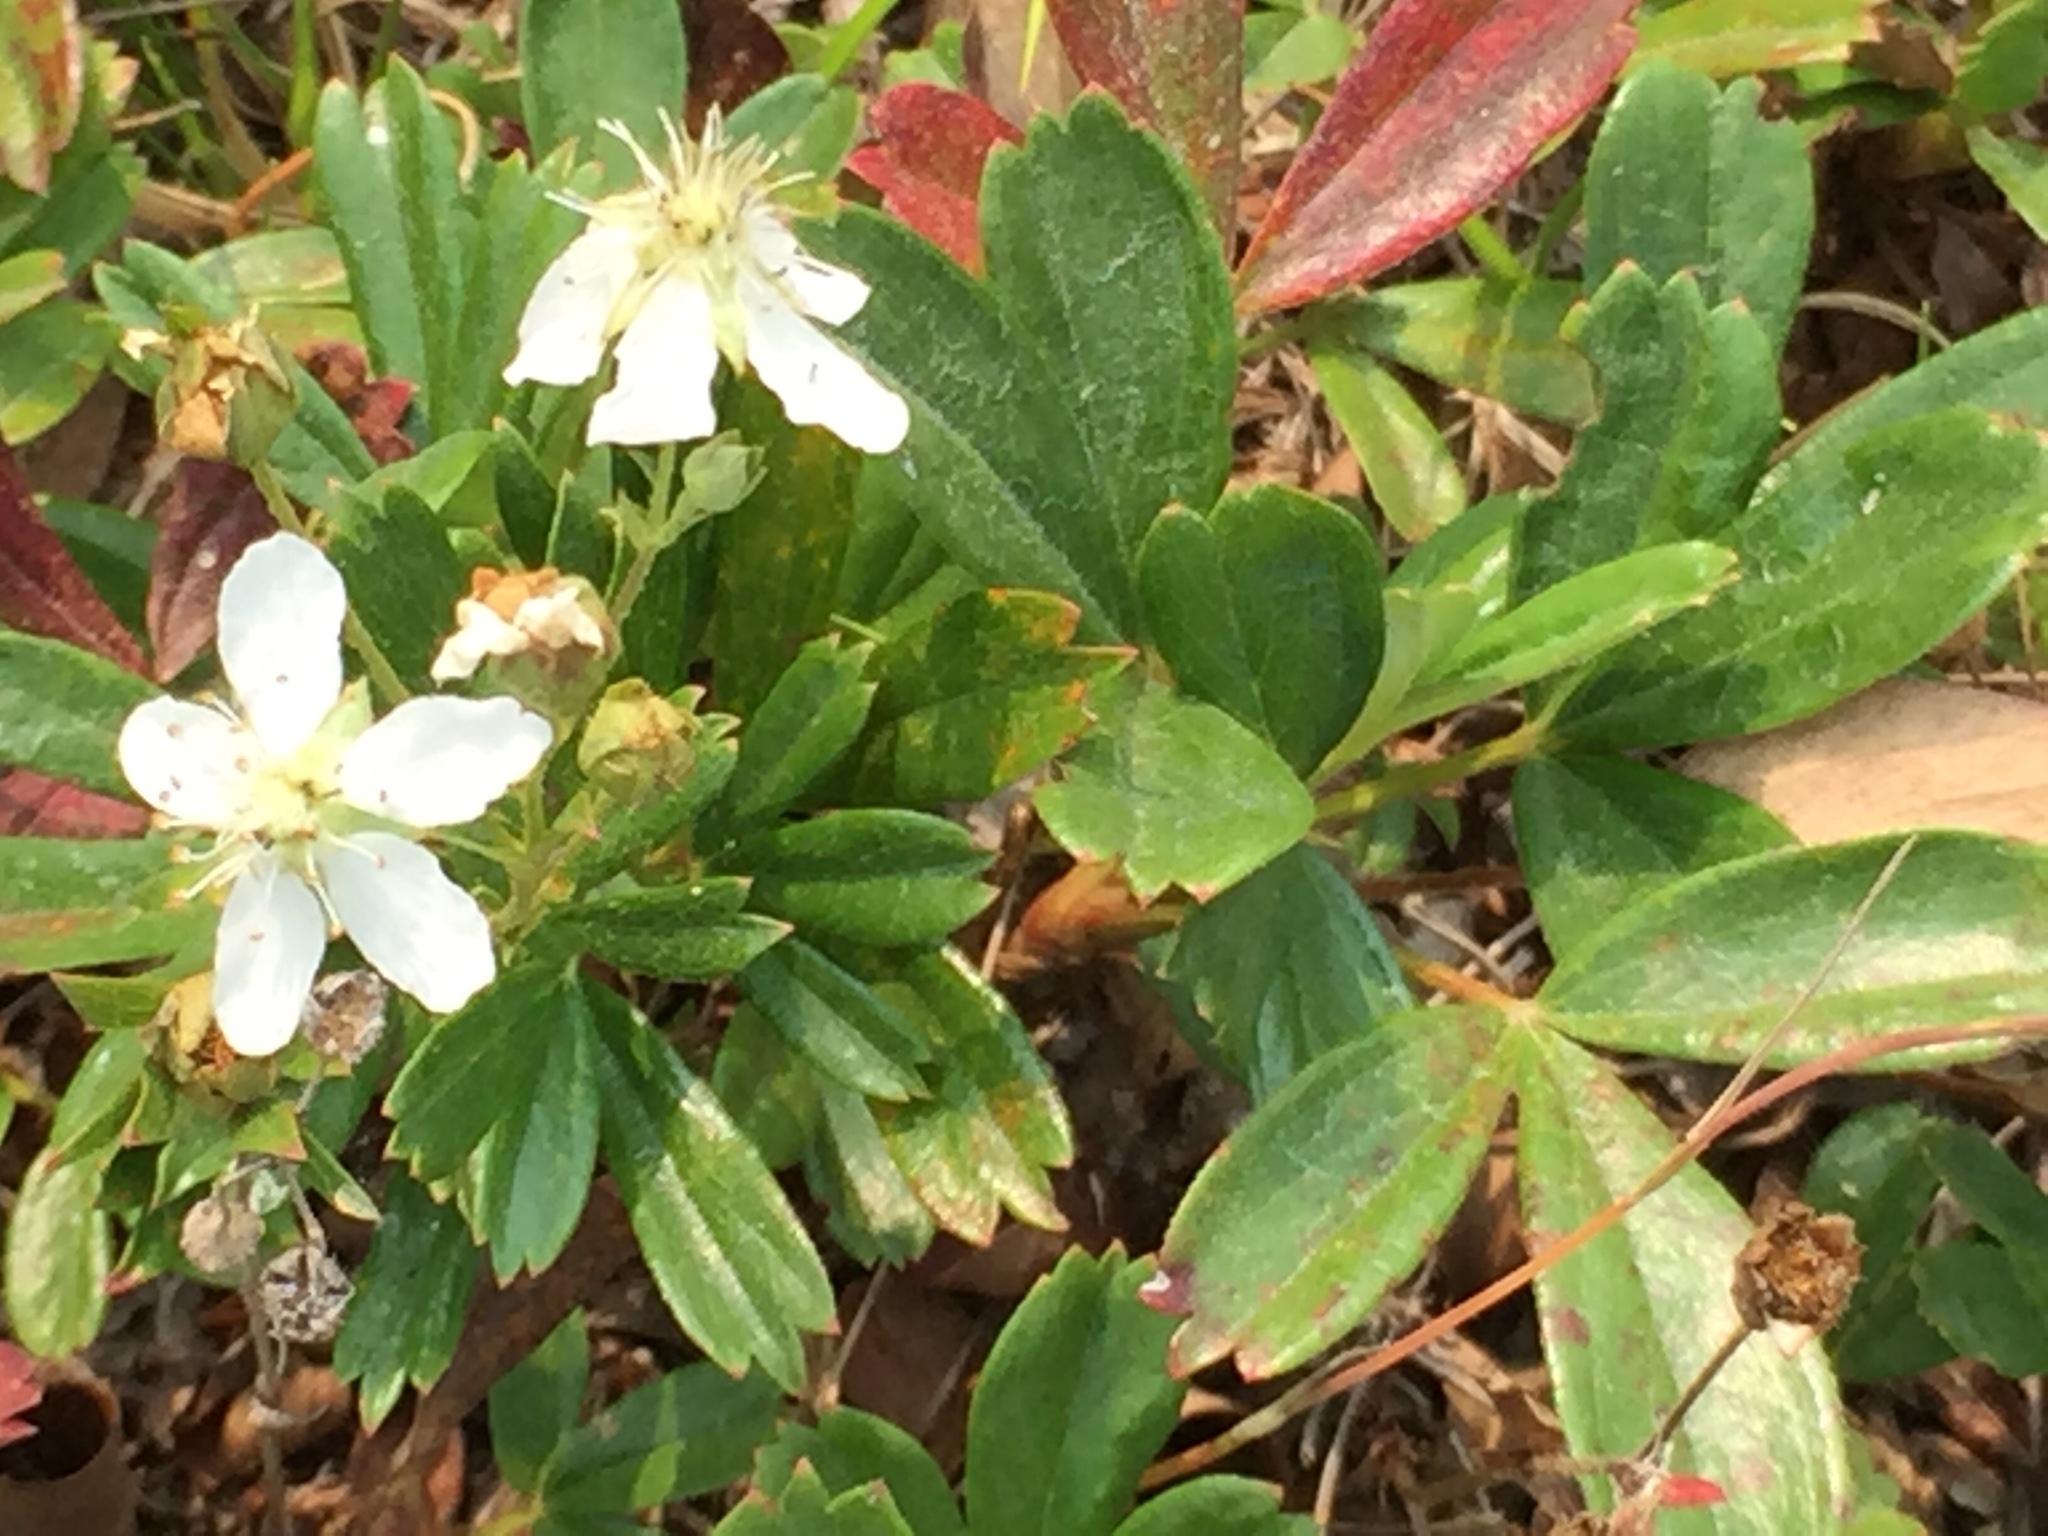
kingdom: Plantae
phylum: Tracheophyta
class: Magnoliopsida
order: Rosales
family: Rosaceae
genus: Sibbaldia
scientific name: Sibbaldia tridentata
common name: Three-toothed cinquefoil
